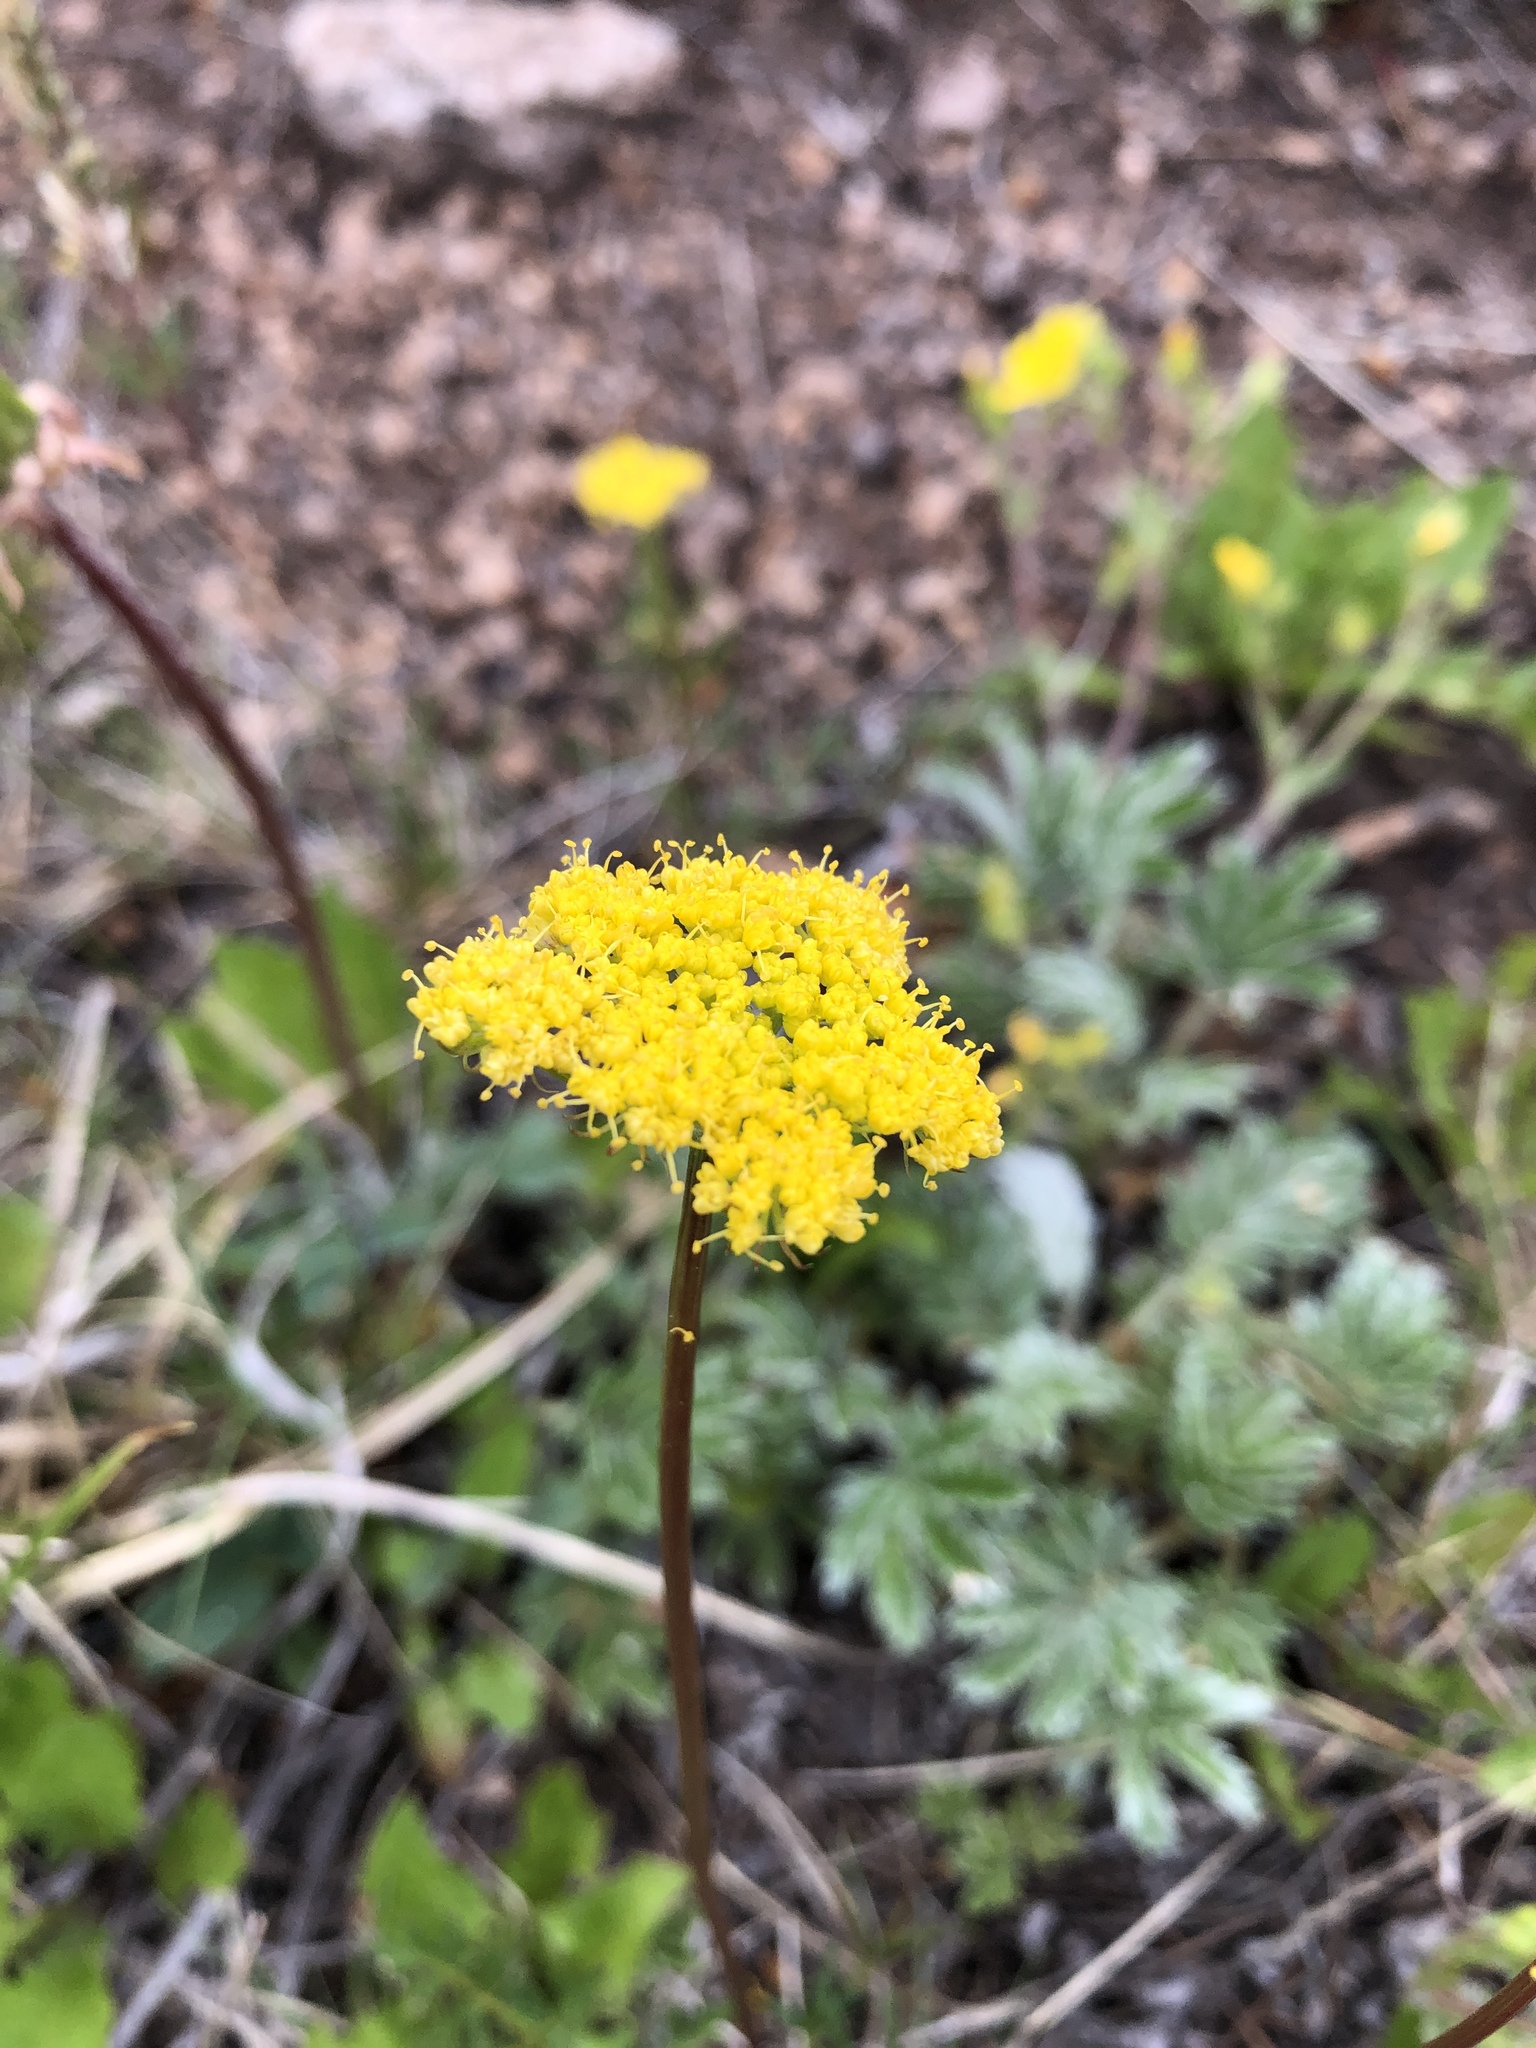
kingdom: Plantae
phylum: Tracheophyta
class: Magnoliopsida
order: Apiales
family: Apiaceae
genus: Cymopterus
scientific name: Cymopterus lemmonii
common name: Lemmon's spring-parsley
